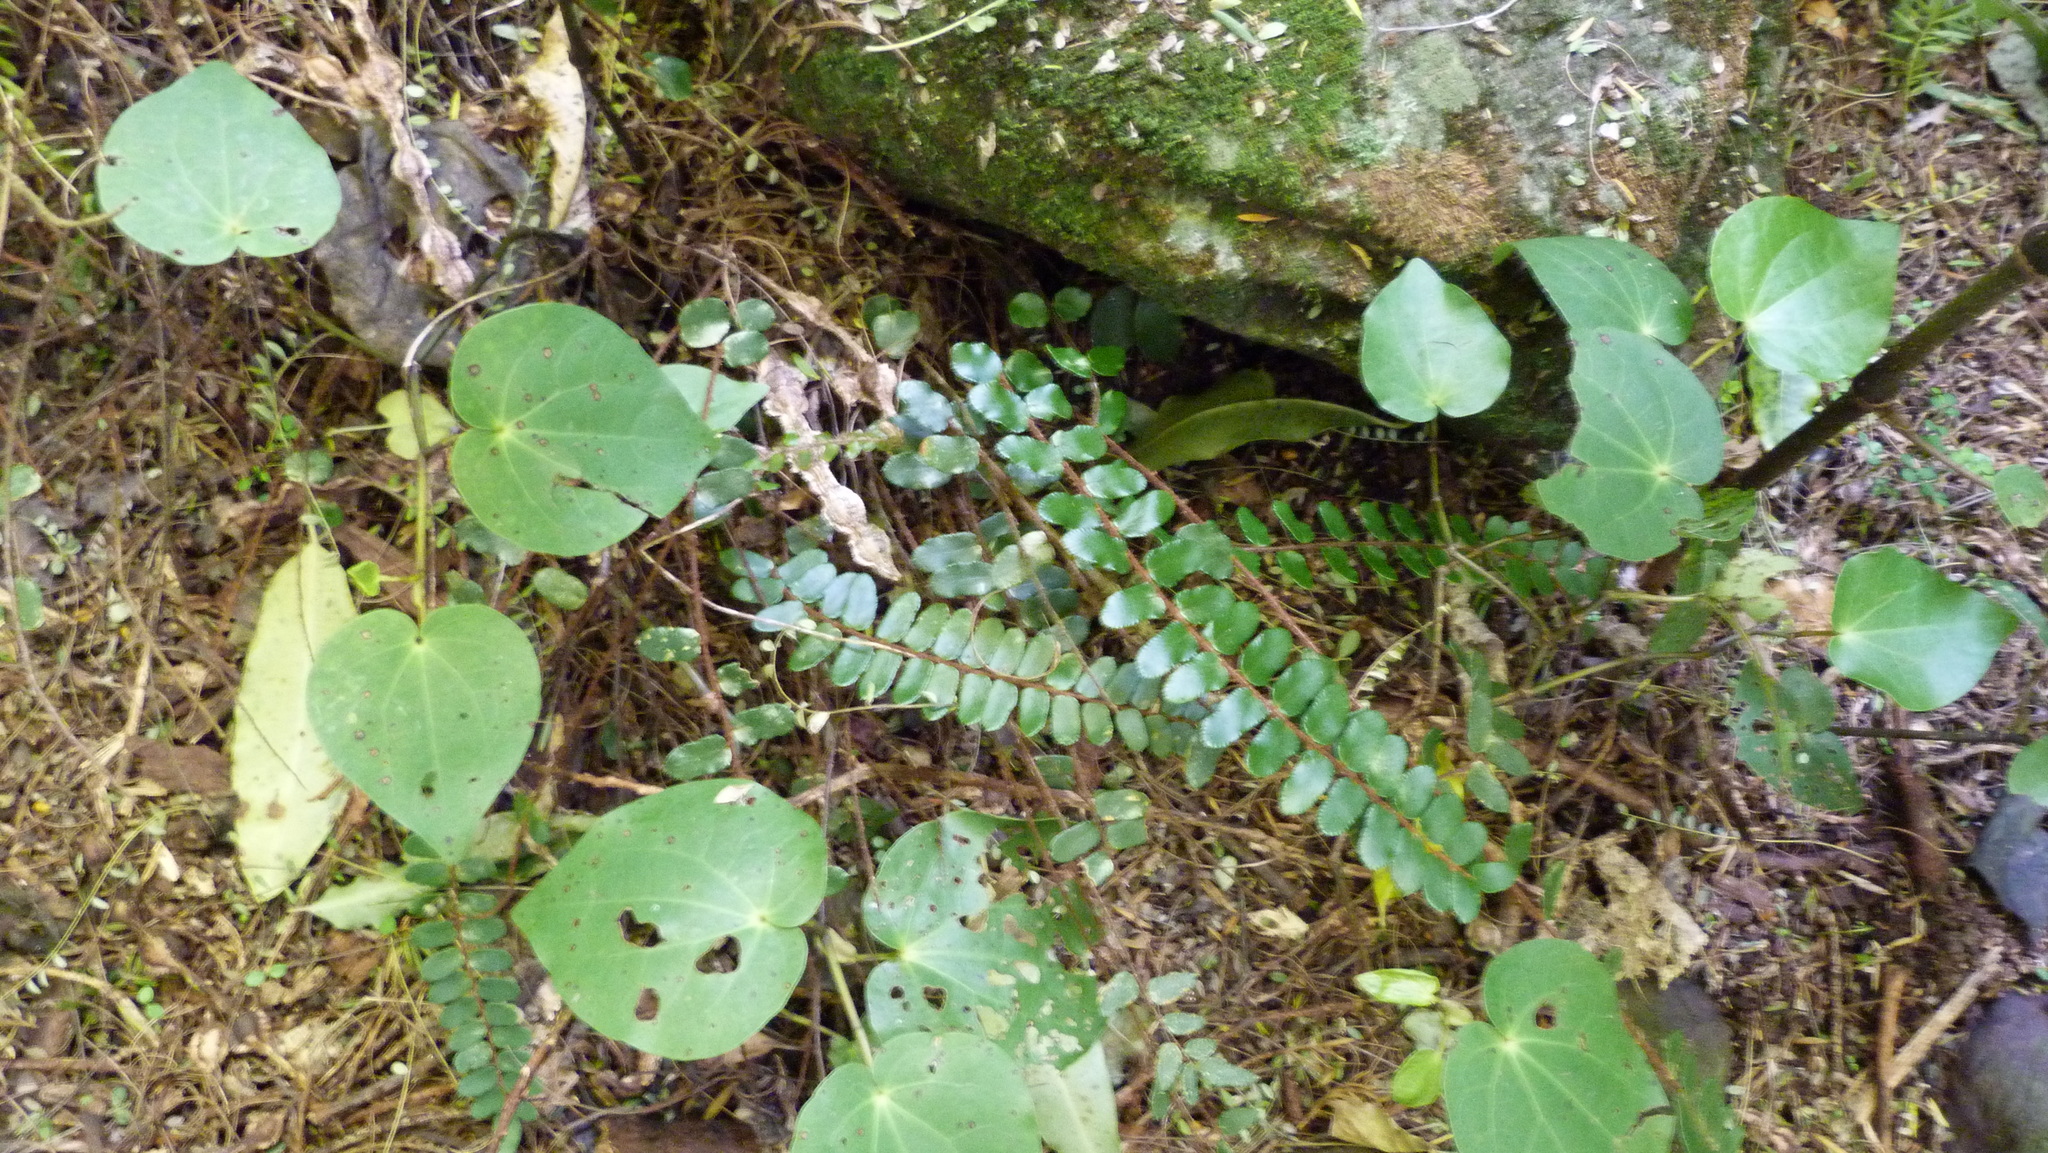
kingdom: Plantae
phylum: Tracheophyta
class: Polypodiopsida
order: Polypodiales
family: Pteridaceae
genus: Pellaea
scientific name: Pellaea rotundifolia
